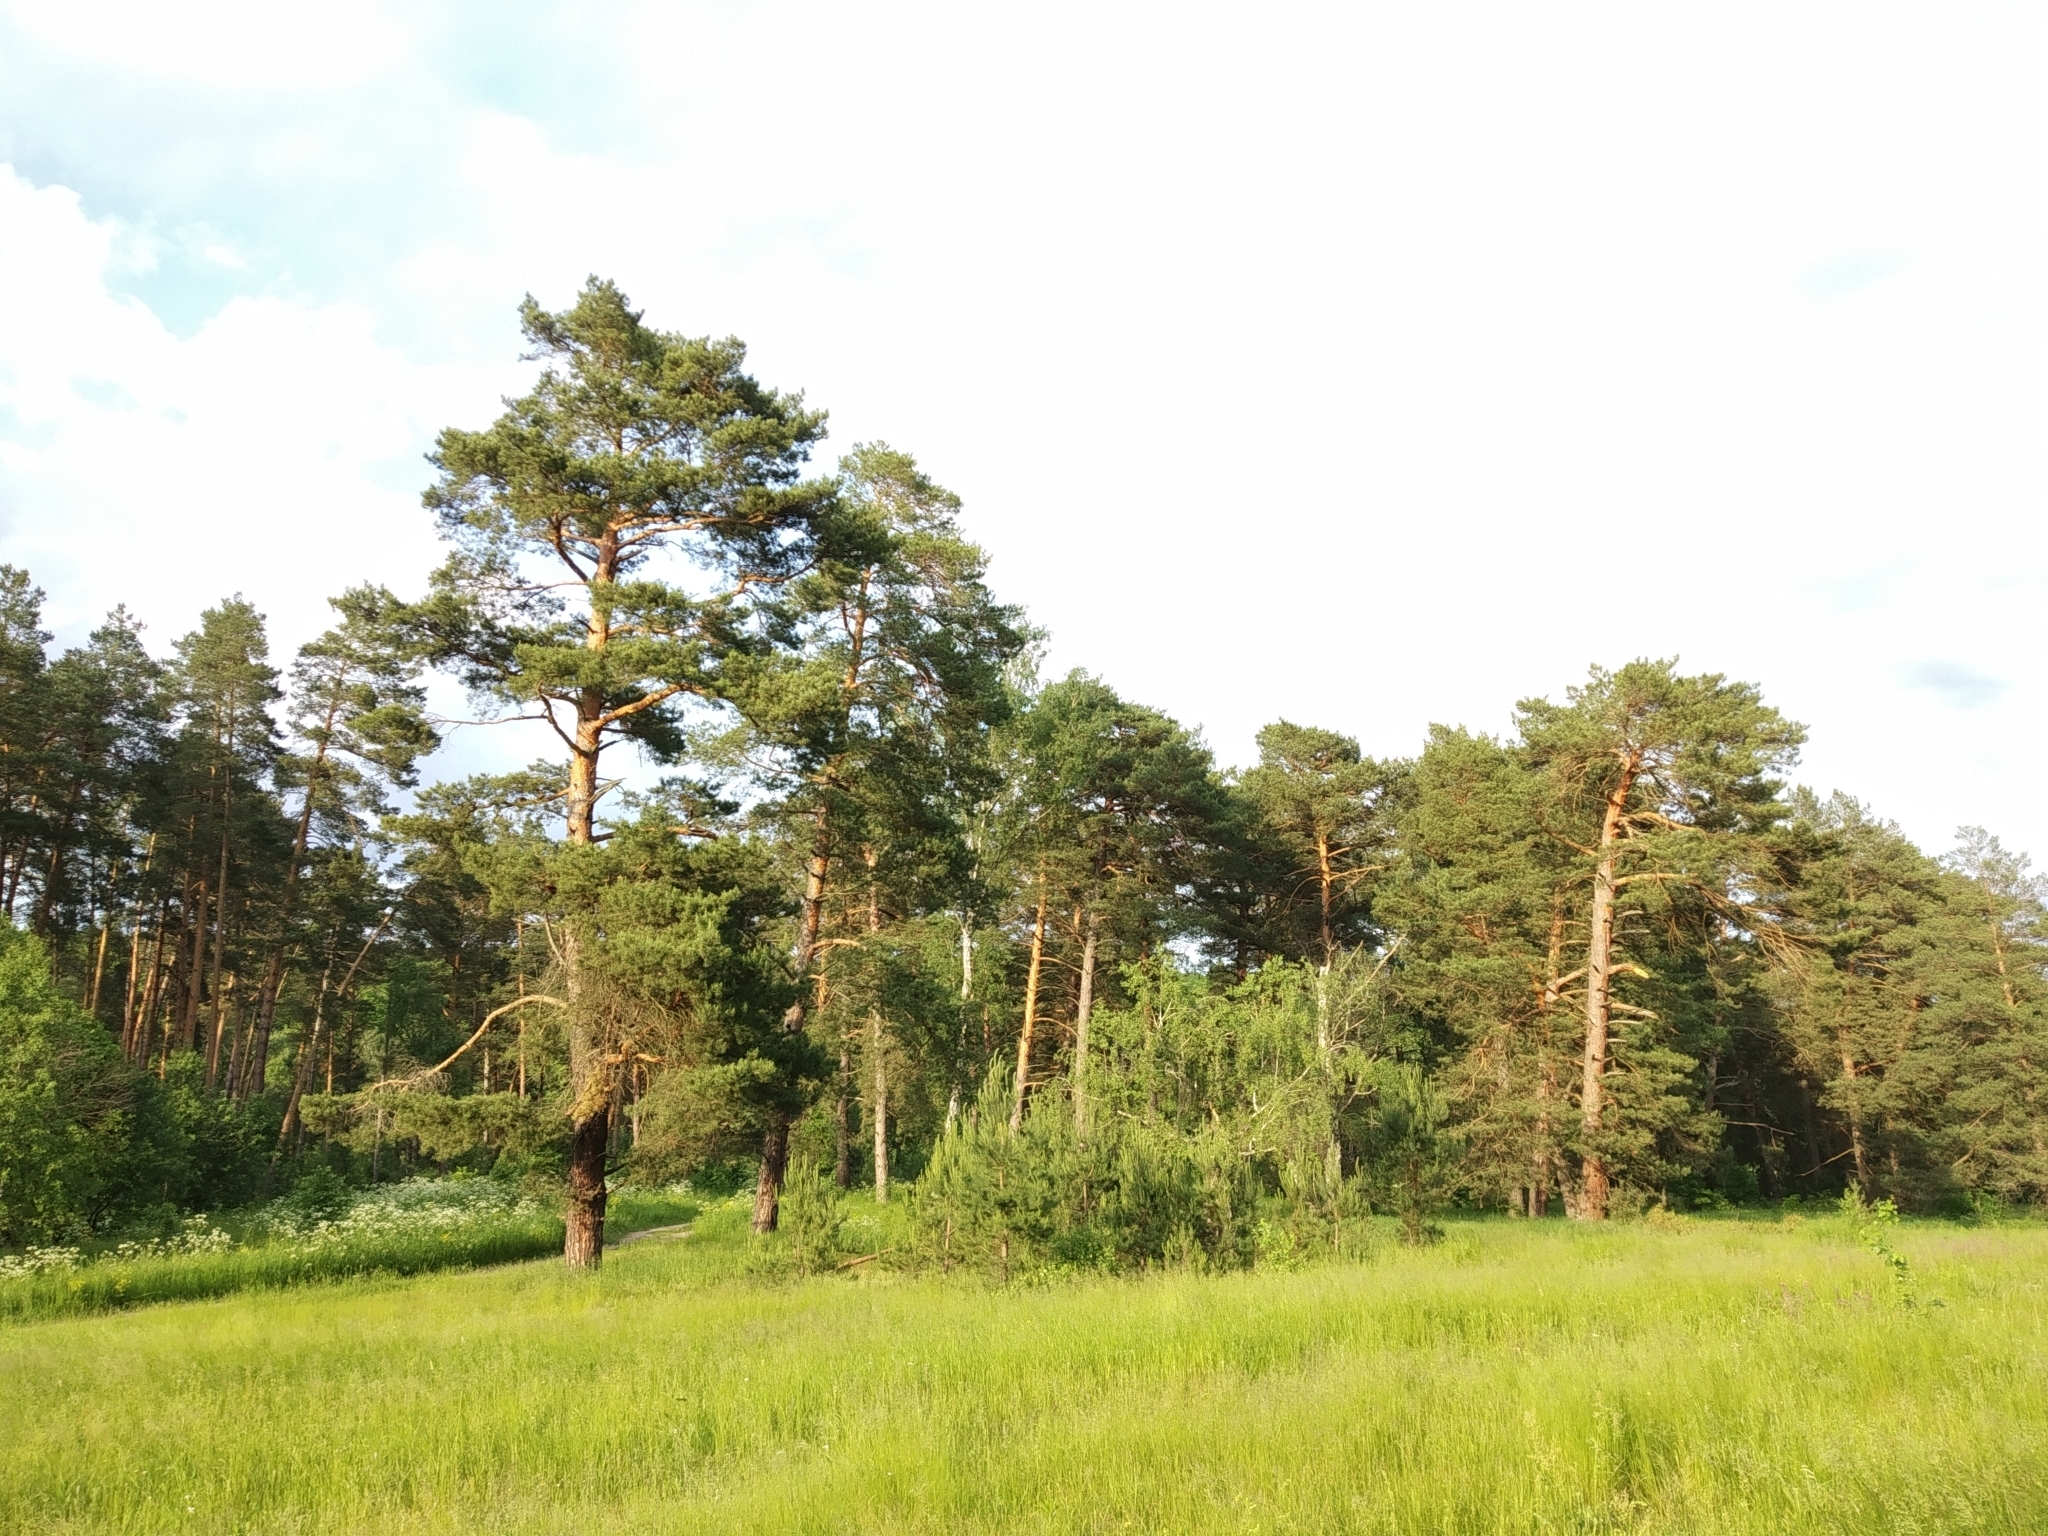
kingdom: Plantae
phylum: Tracheophyta
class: Pinopsida
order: Pinales
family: Pinaceae
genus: Pinus
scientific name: Pinus sylvestris
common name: Scots pine
